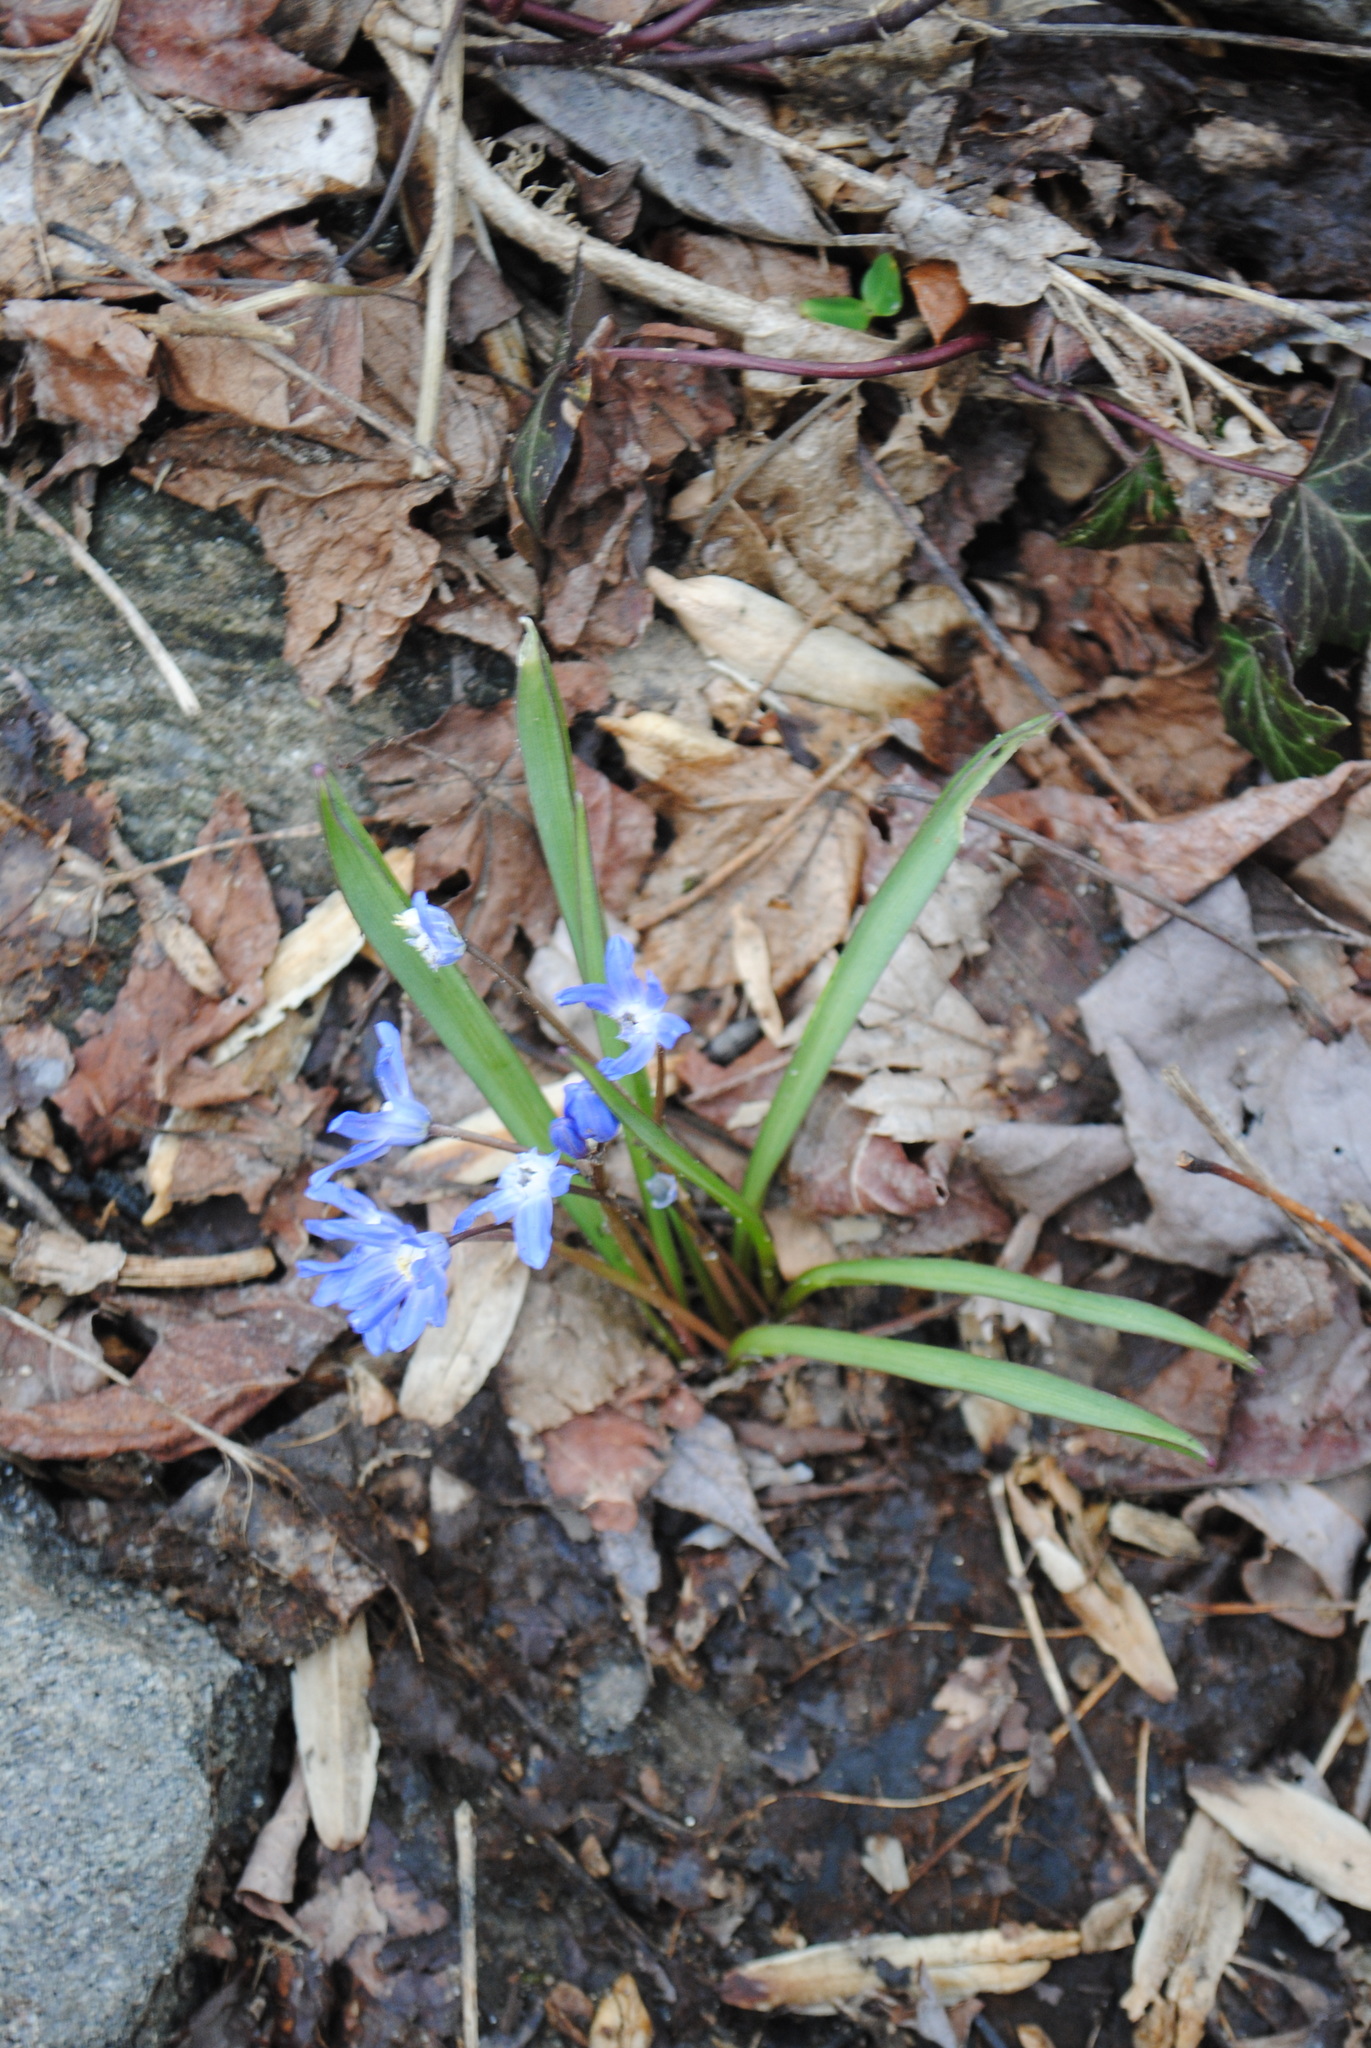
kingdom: Plantae
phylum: Tracheophyta
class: Liliopsida
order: Asparagales
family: Asparagaceae
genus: Scilla
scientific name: Scilla forbesii
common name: Glory-of-the-snow
